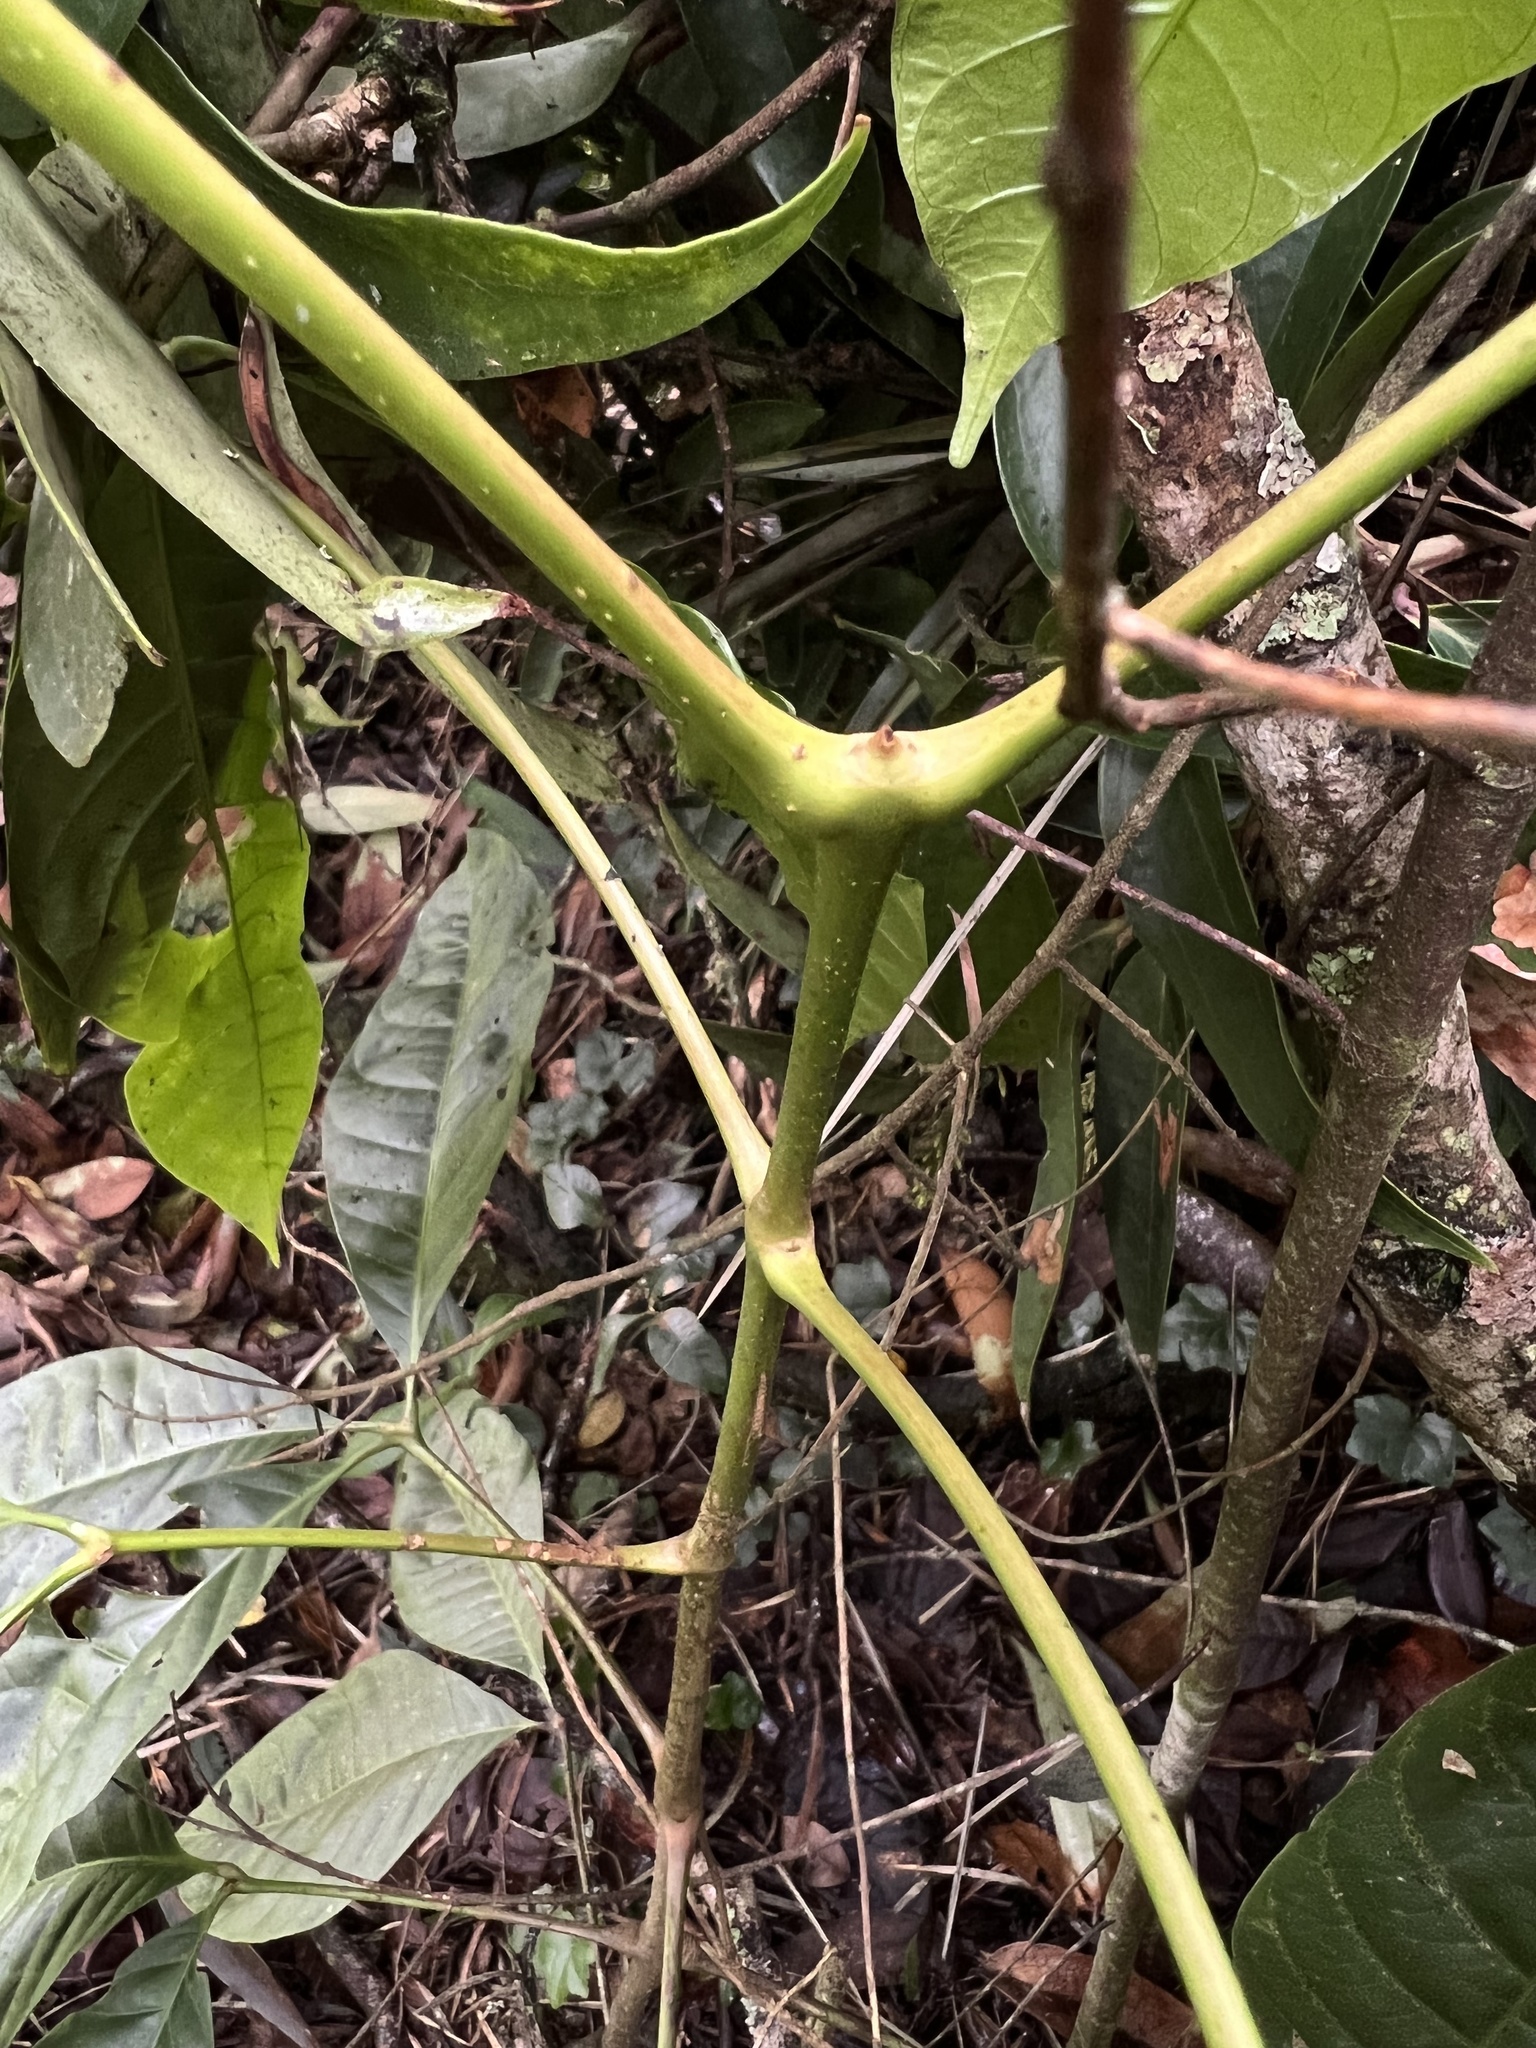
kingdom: Plantae
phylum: Tracheophyta
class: Magnoliopsida
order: Sapindales
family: Sapindaceae
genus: Billia
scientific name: Billia rosea
